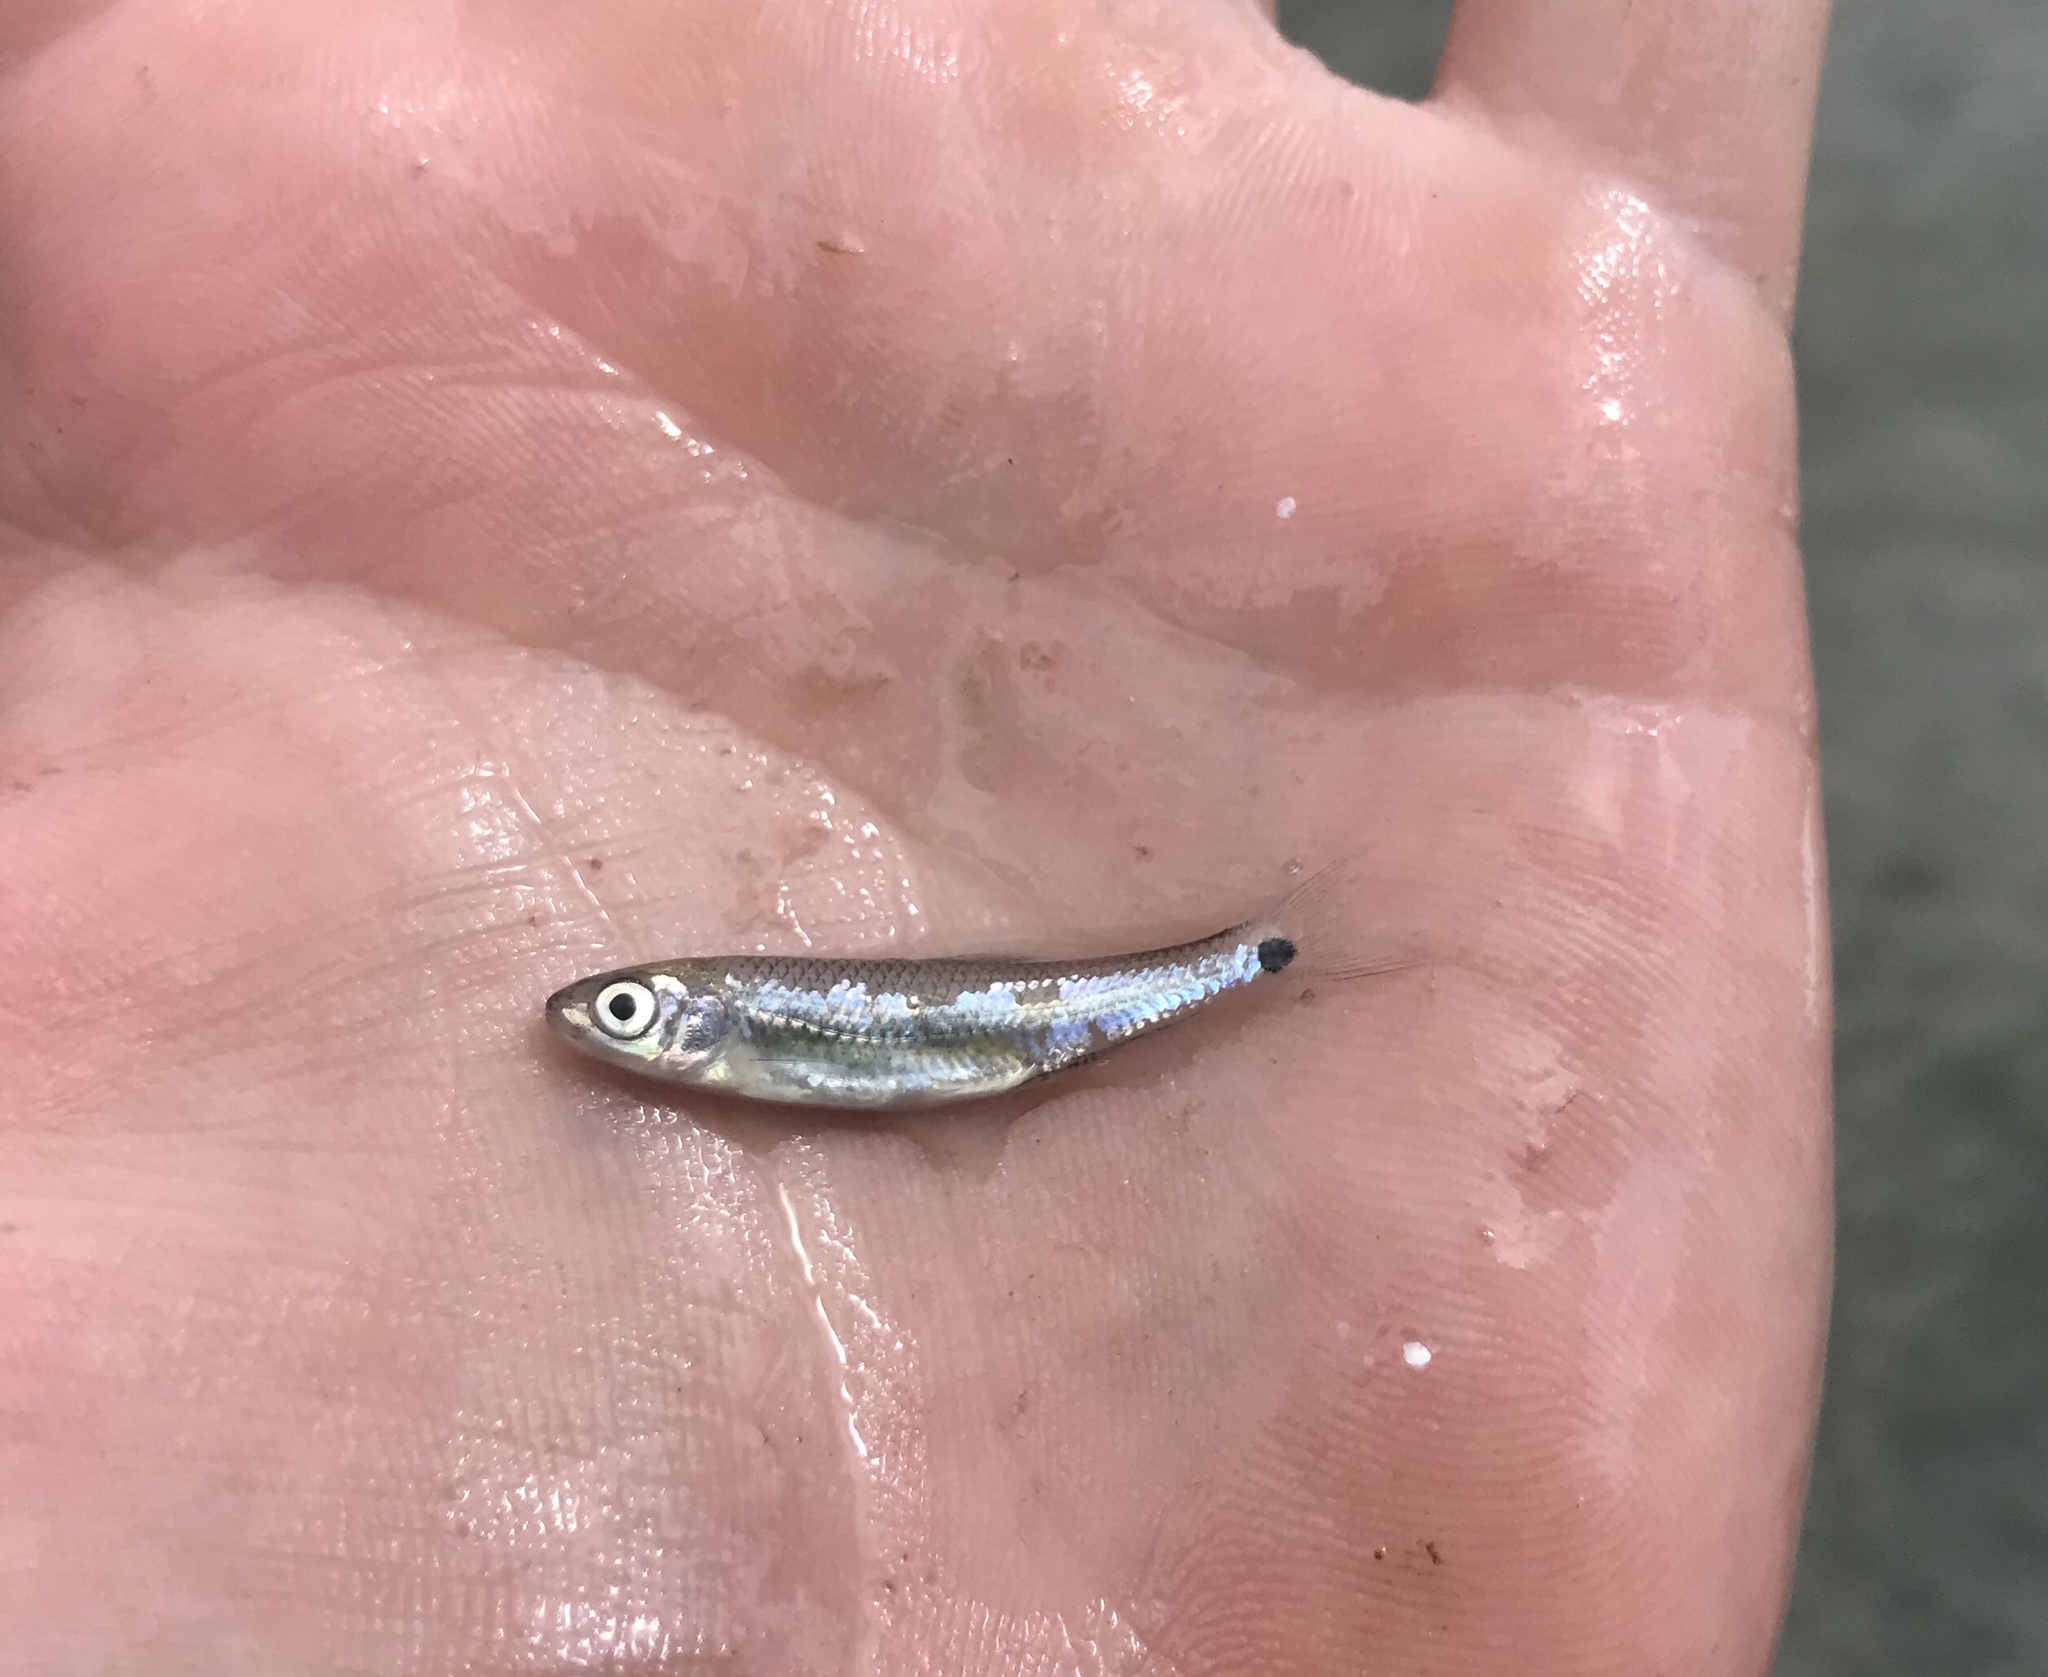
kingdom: Animalia
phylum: Chordata
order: Cypriniformes
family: Cyprinidae
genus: Cyprinella
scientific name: Cyprinella venusta
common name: Blacktail shiner
